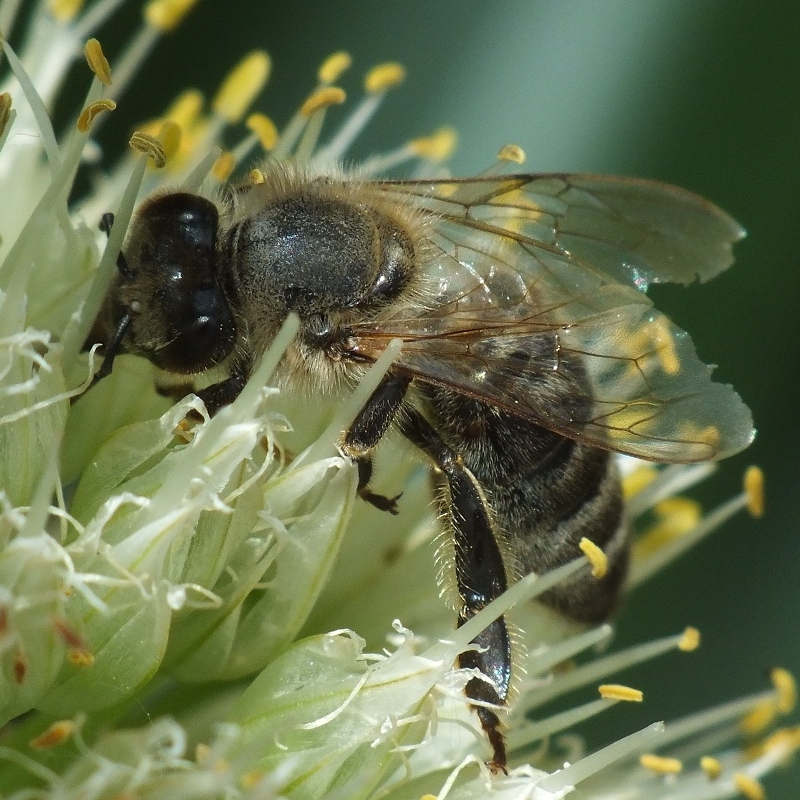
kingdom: Animalia
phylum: Arthropoda
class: Insecta
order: Hymenoptera
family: Apidae
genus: Apis
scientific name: Apis mellifera
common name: Honey bee
